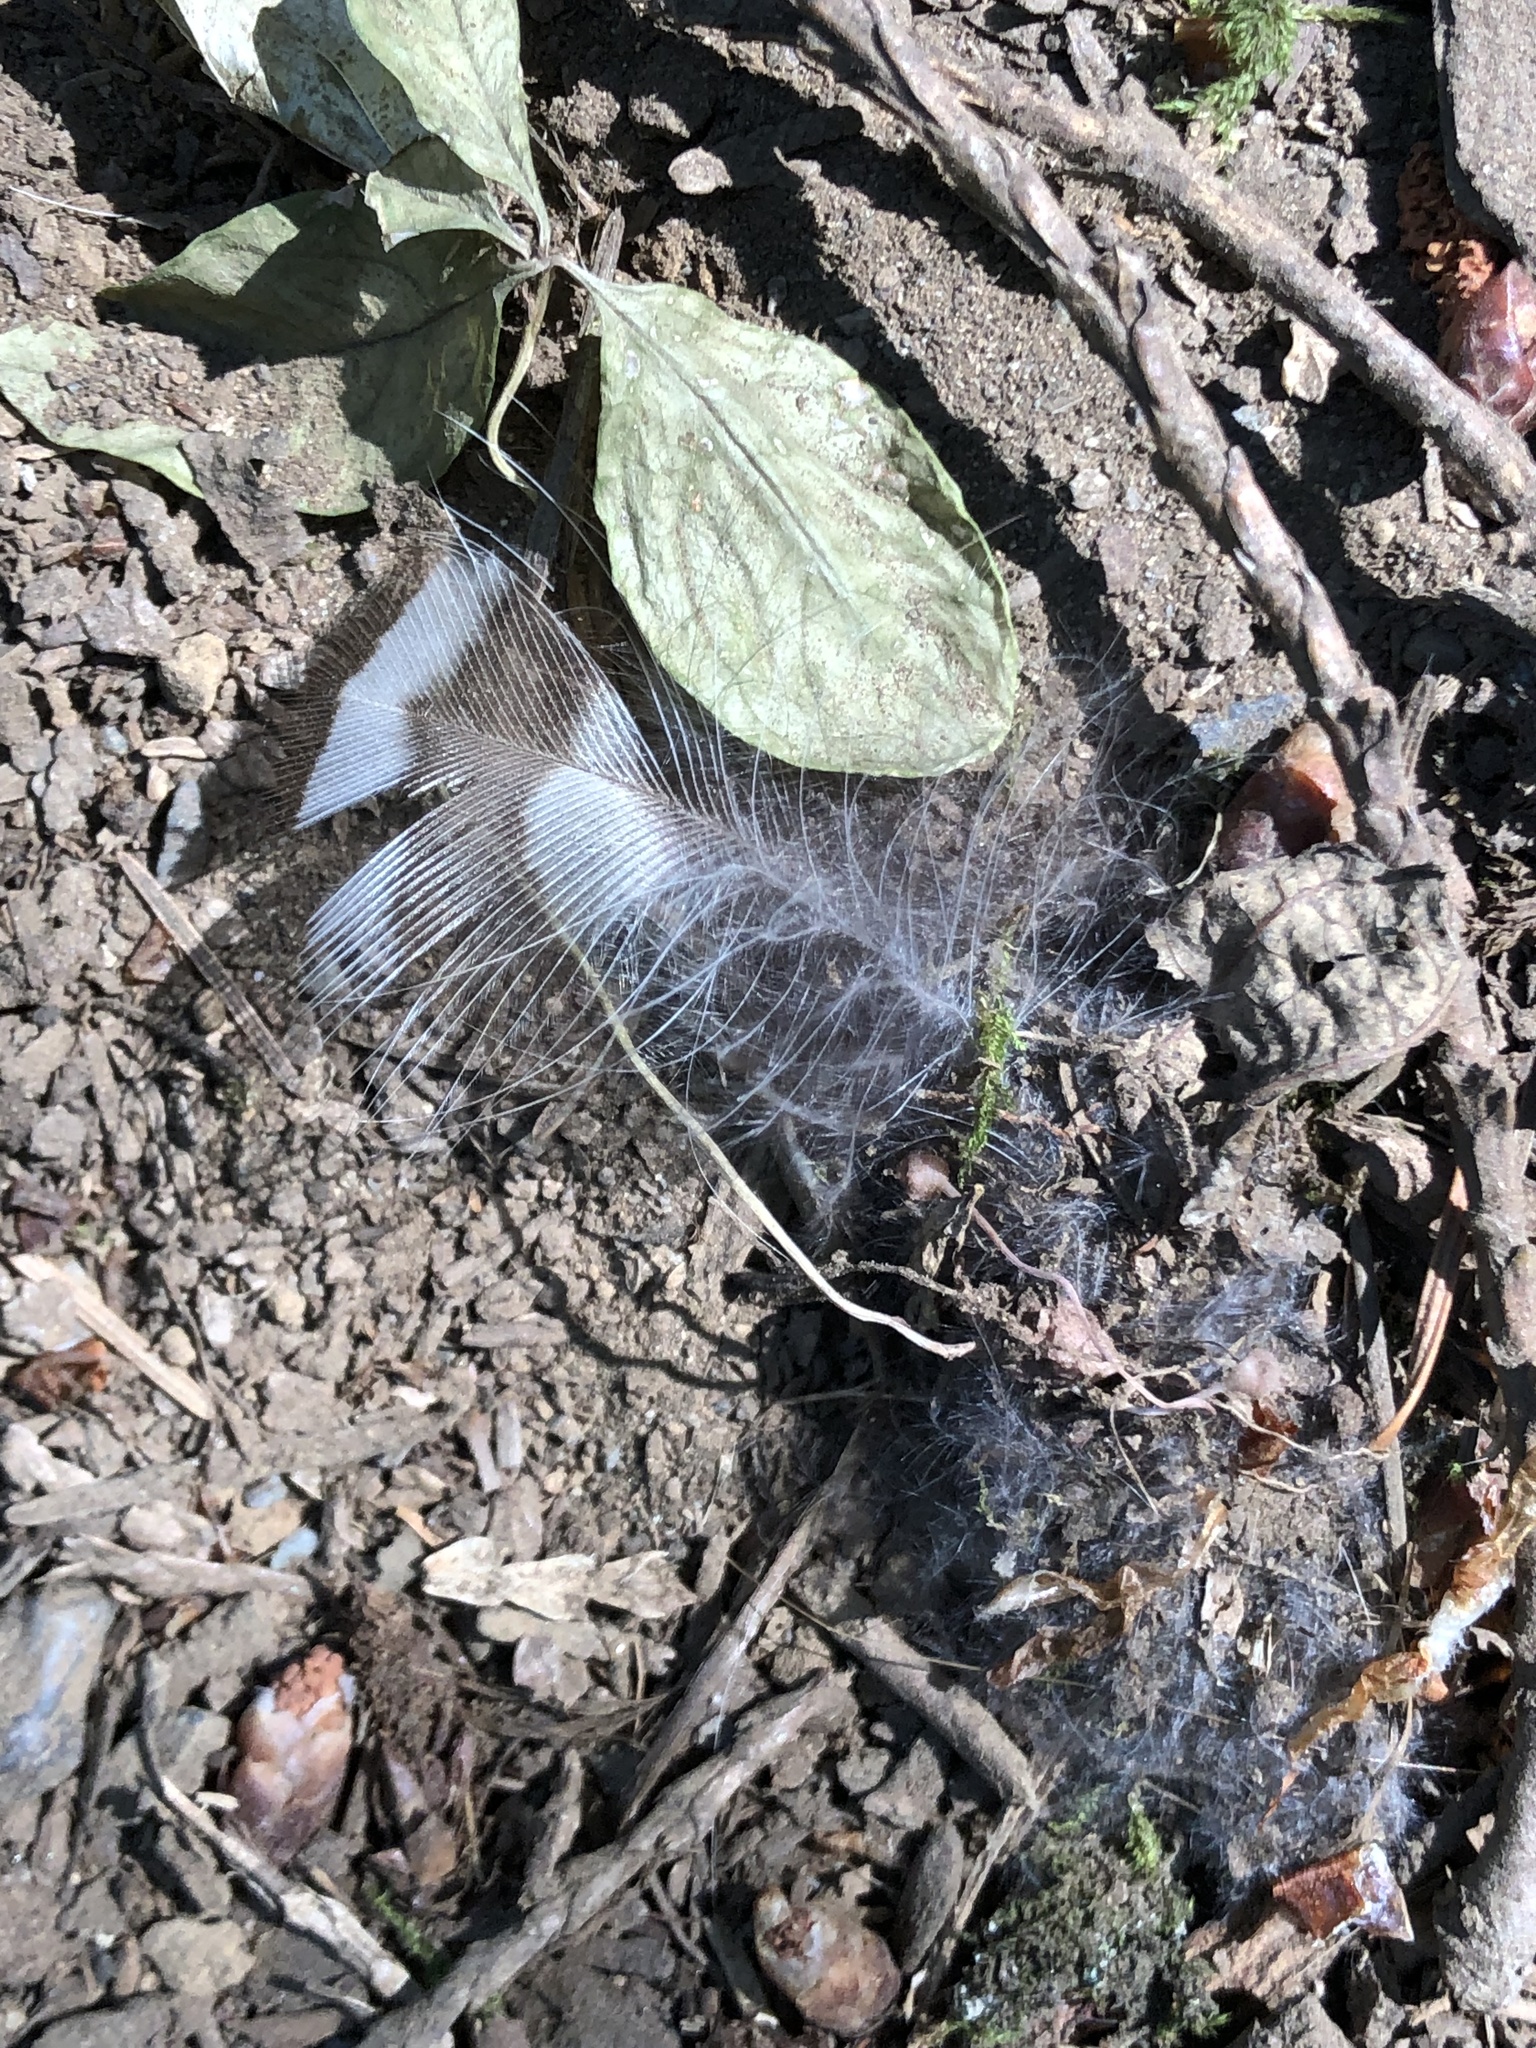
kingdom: Animalia
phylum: Chordata
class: Aves
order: Strigiformes
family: Strigidae
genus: Strix
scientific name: Strix varia
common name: Barred owl
